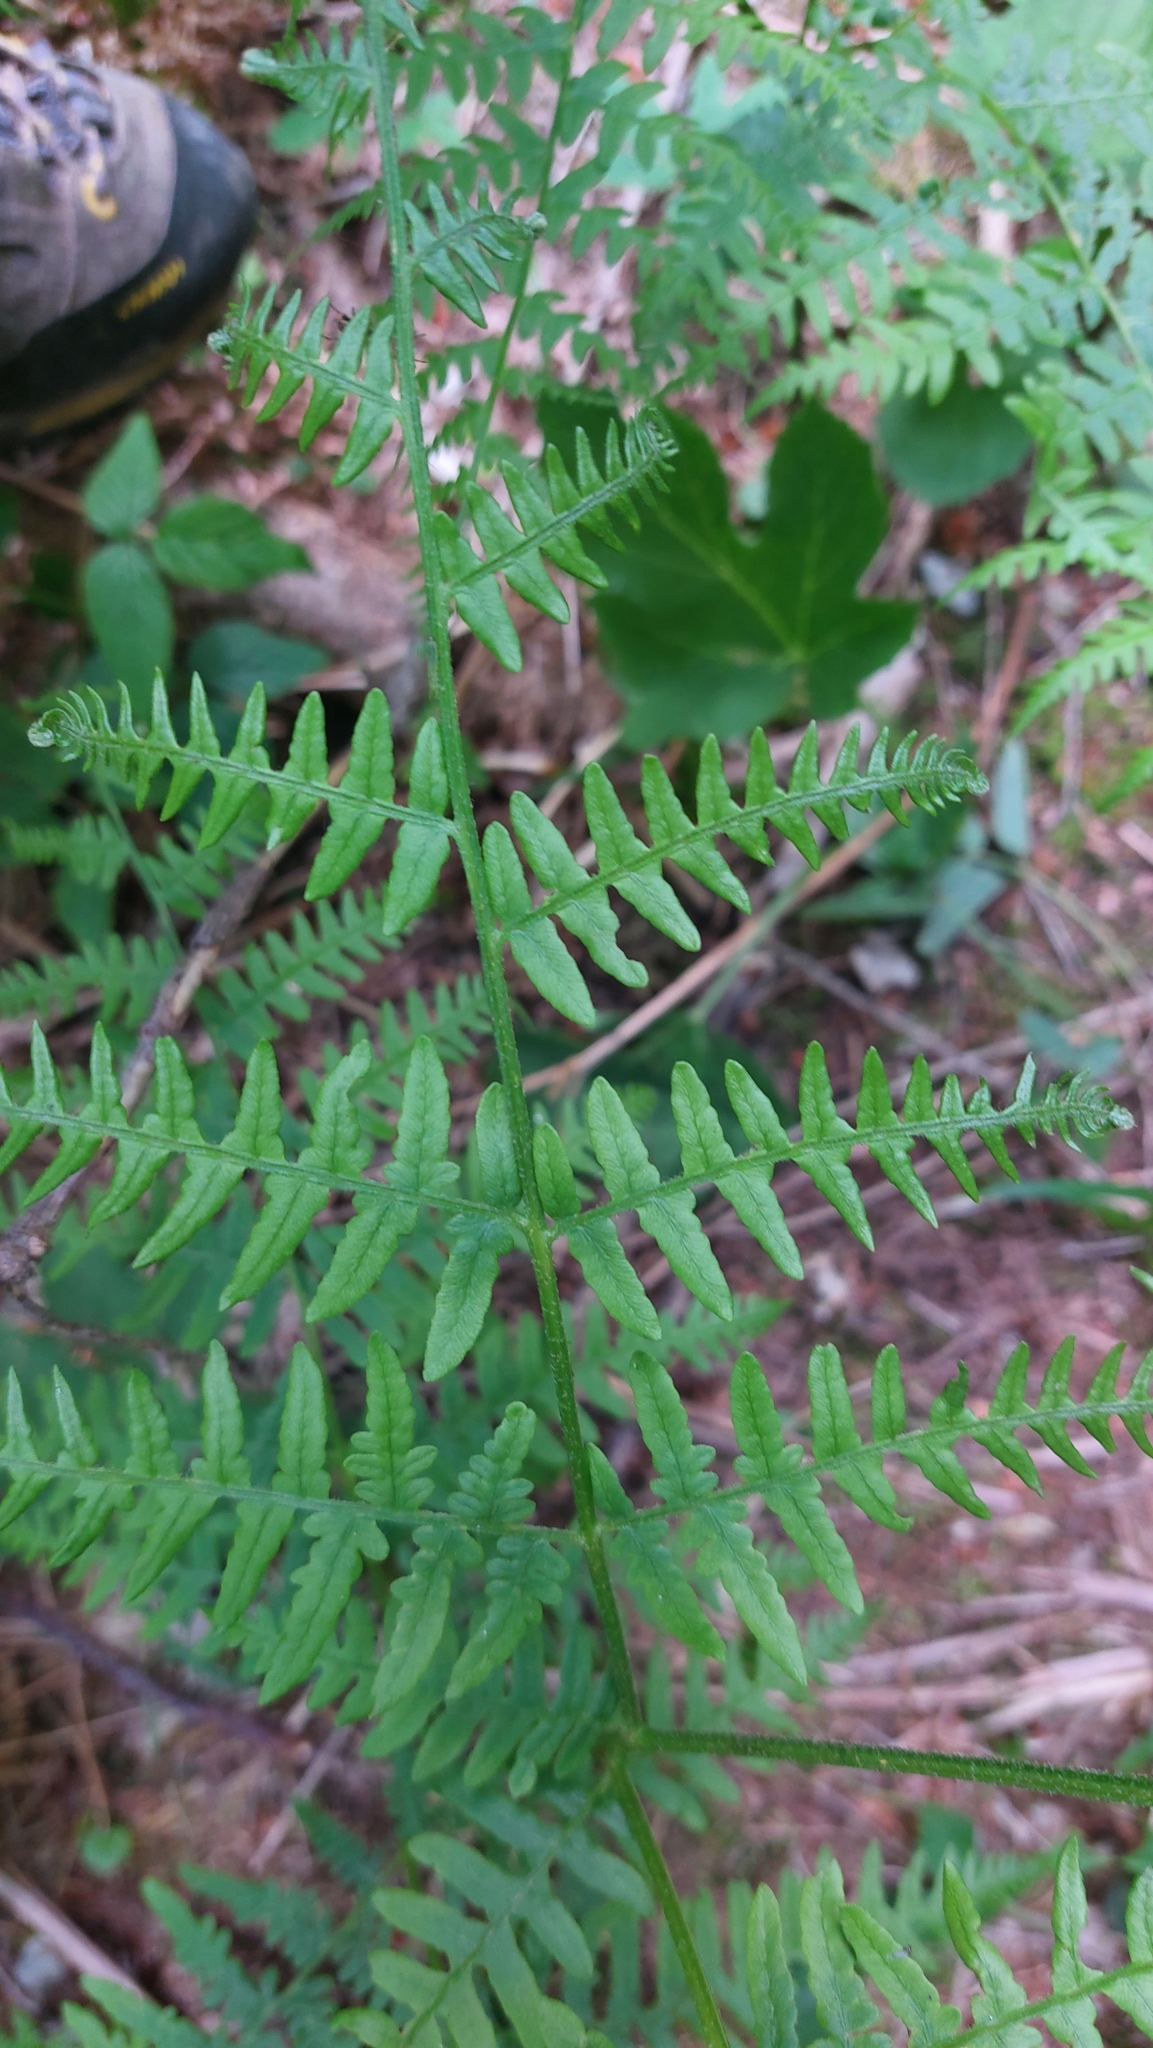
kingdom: Plantae
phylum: Tracheophyta
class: Polypodiopsida
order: Polypodiales
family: Dennstaedtiaceae
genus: Pteridium
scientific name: Pteridium aquilinum
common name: Bracken
